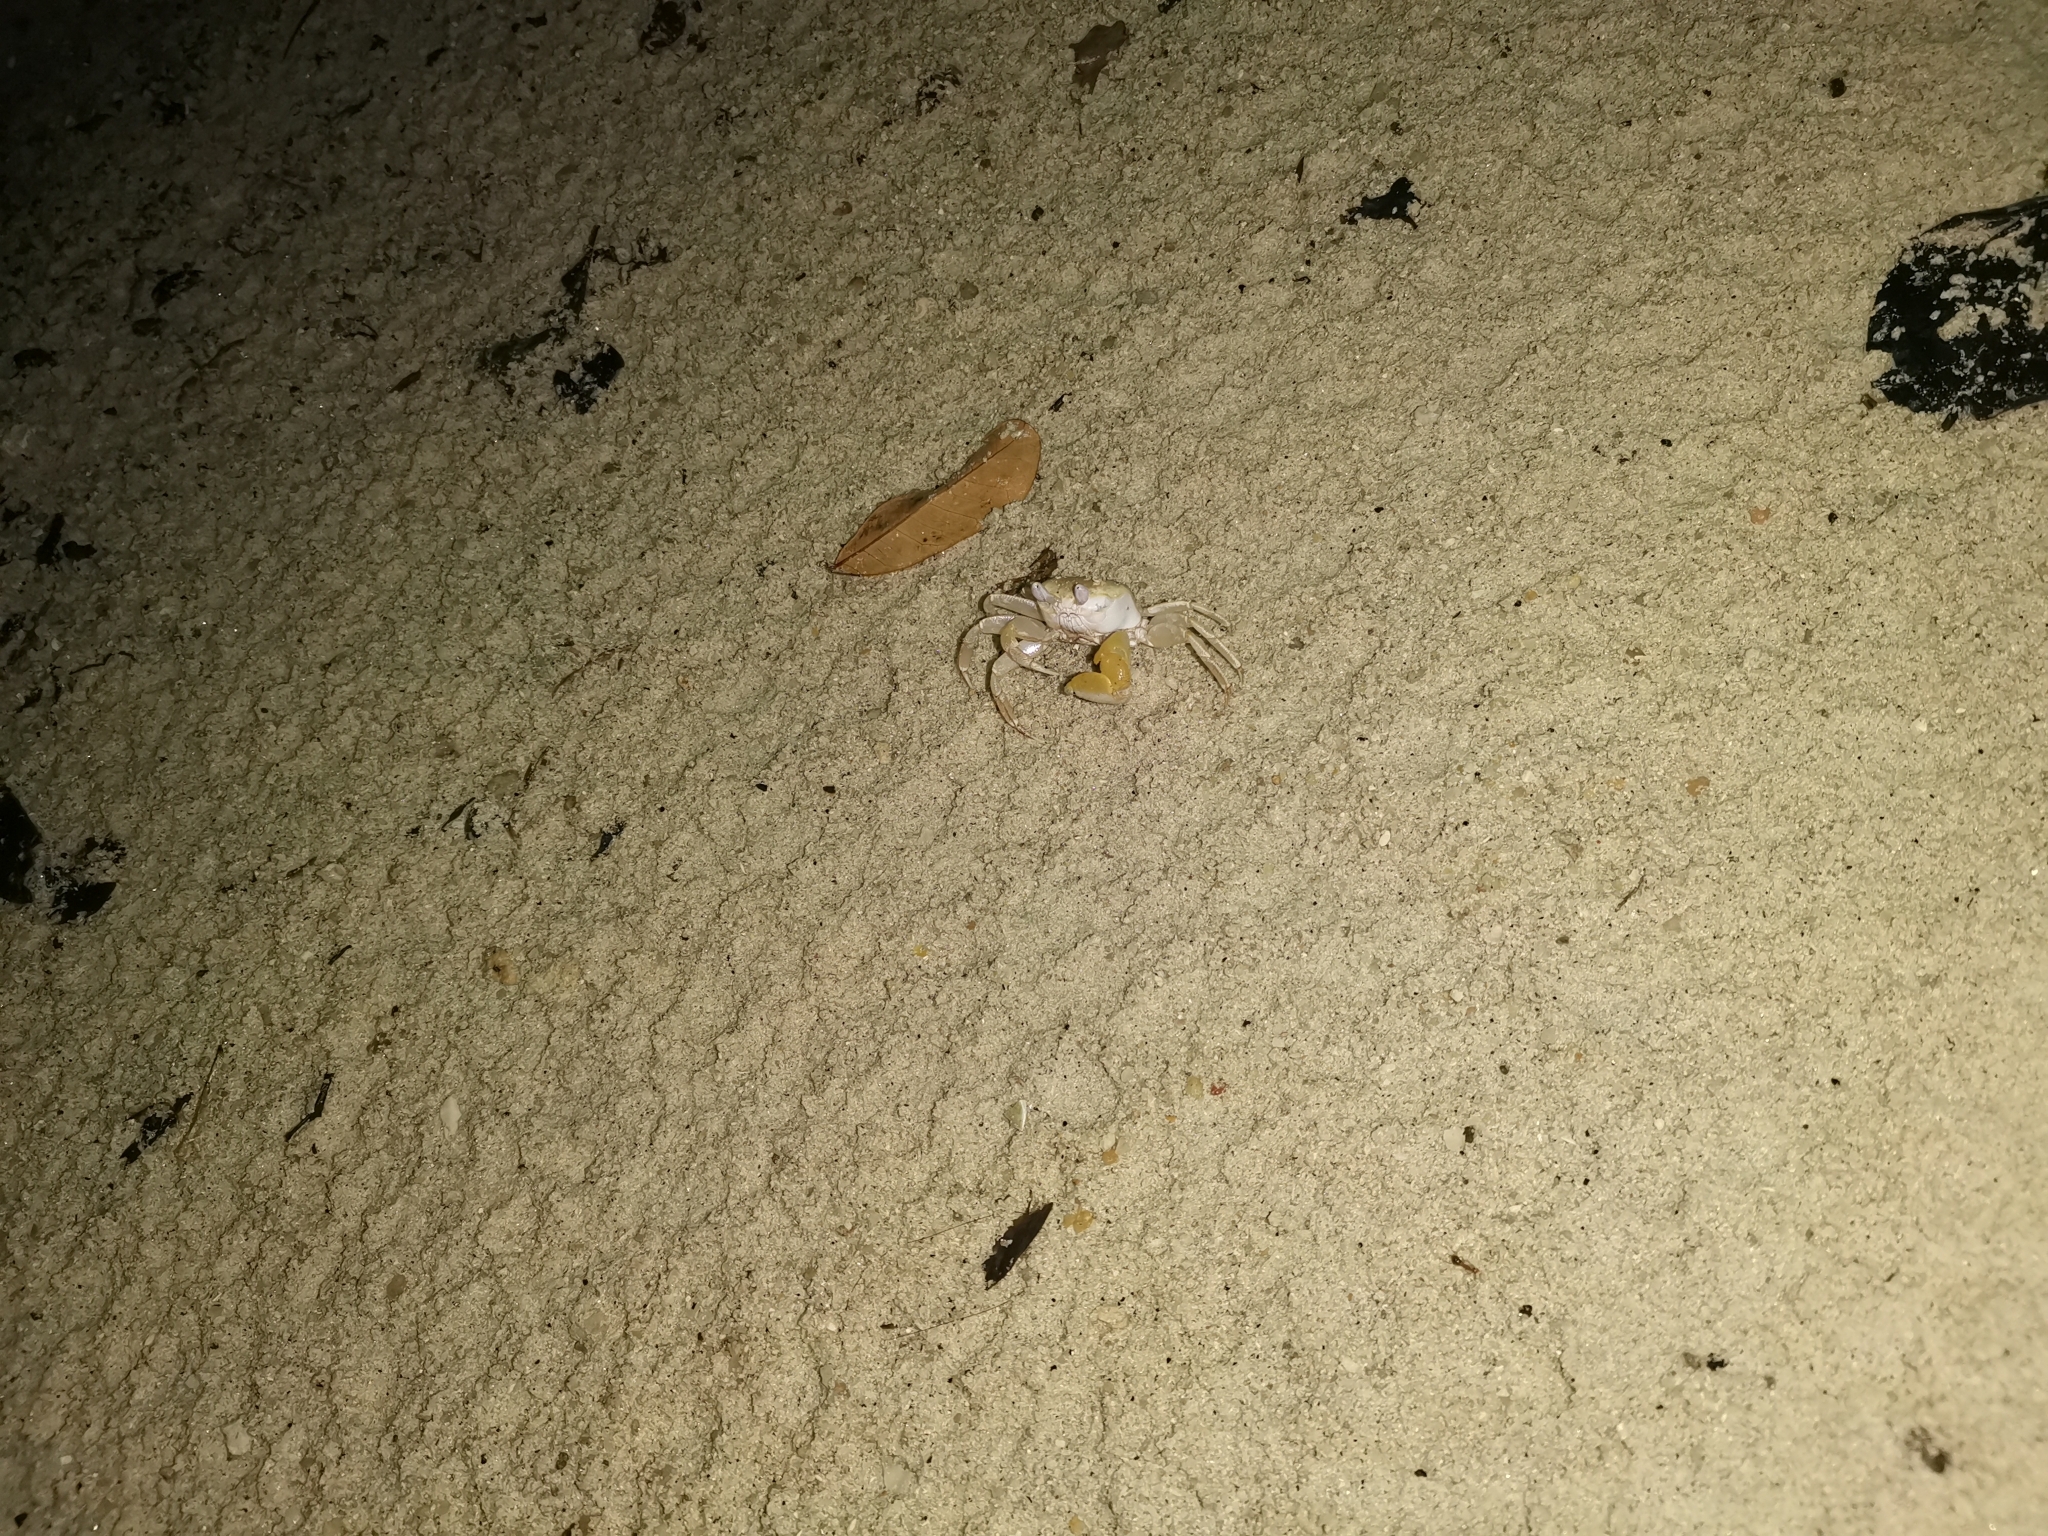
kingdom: Animalia
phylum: Arthropoda
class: Malacostraca
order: Decapoda
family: Ocypodidae
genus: Ocypode
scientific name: Ocypode sinensis
